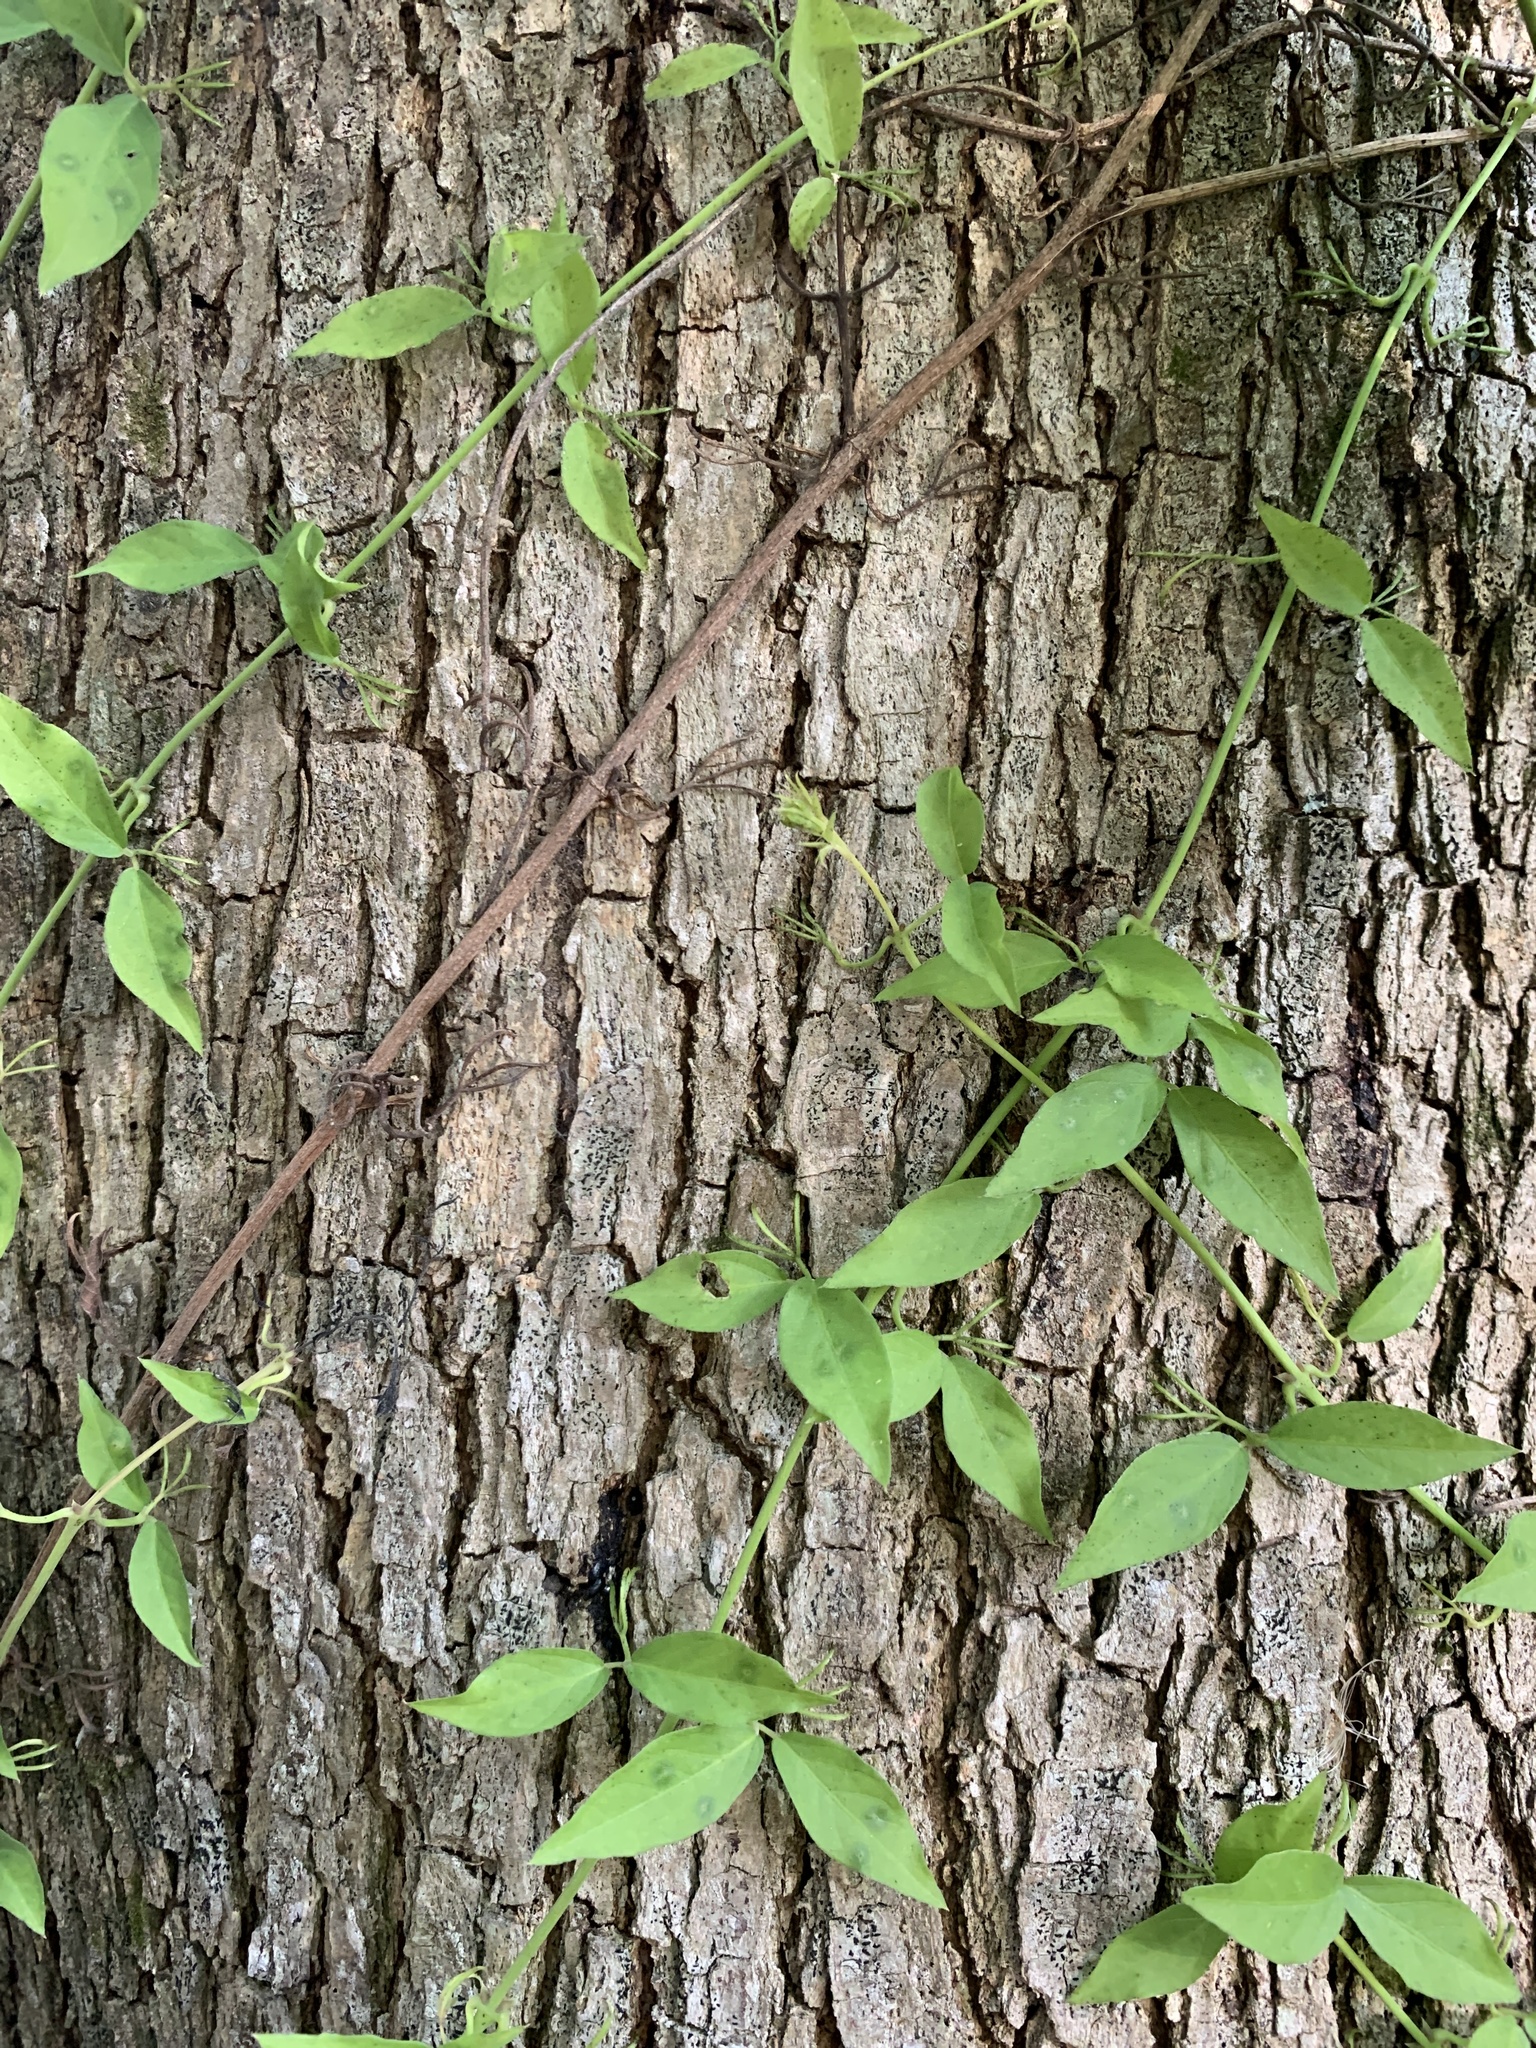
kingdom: Plantae
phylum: Tracheophyta
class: Magnoliopsida
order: Lamiales
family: Bignoniaceae
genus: Dolichandra
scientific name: Dolichandra unguis-cati
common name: Catclaw vine
